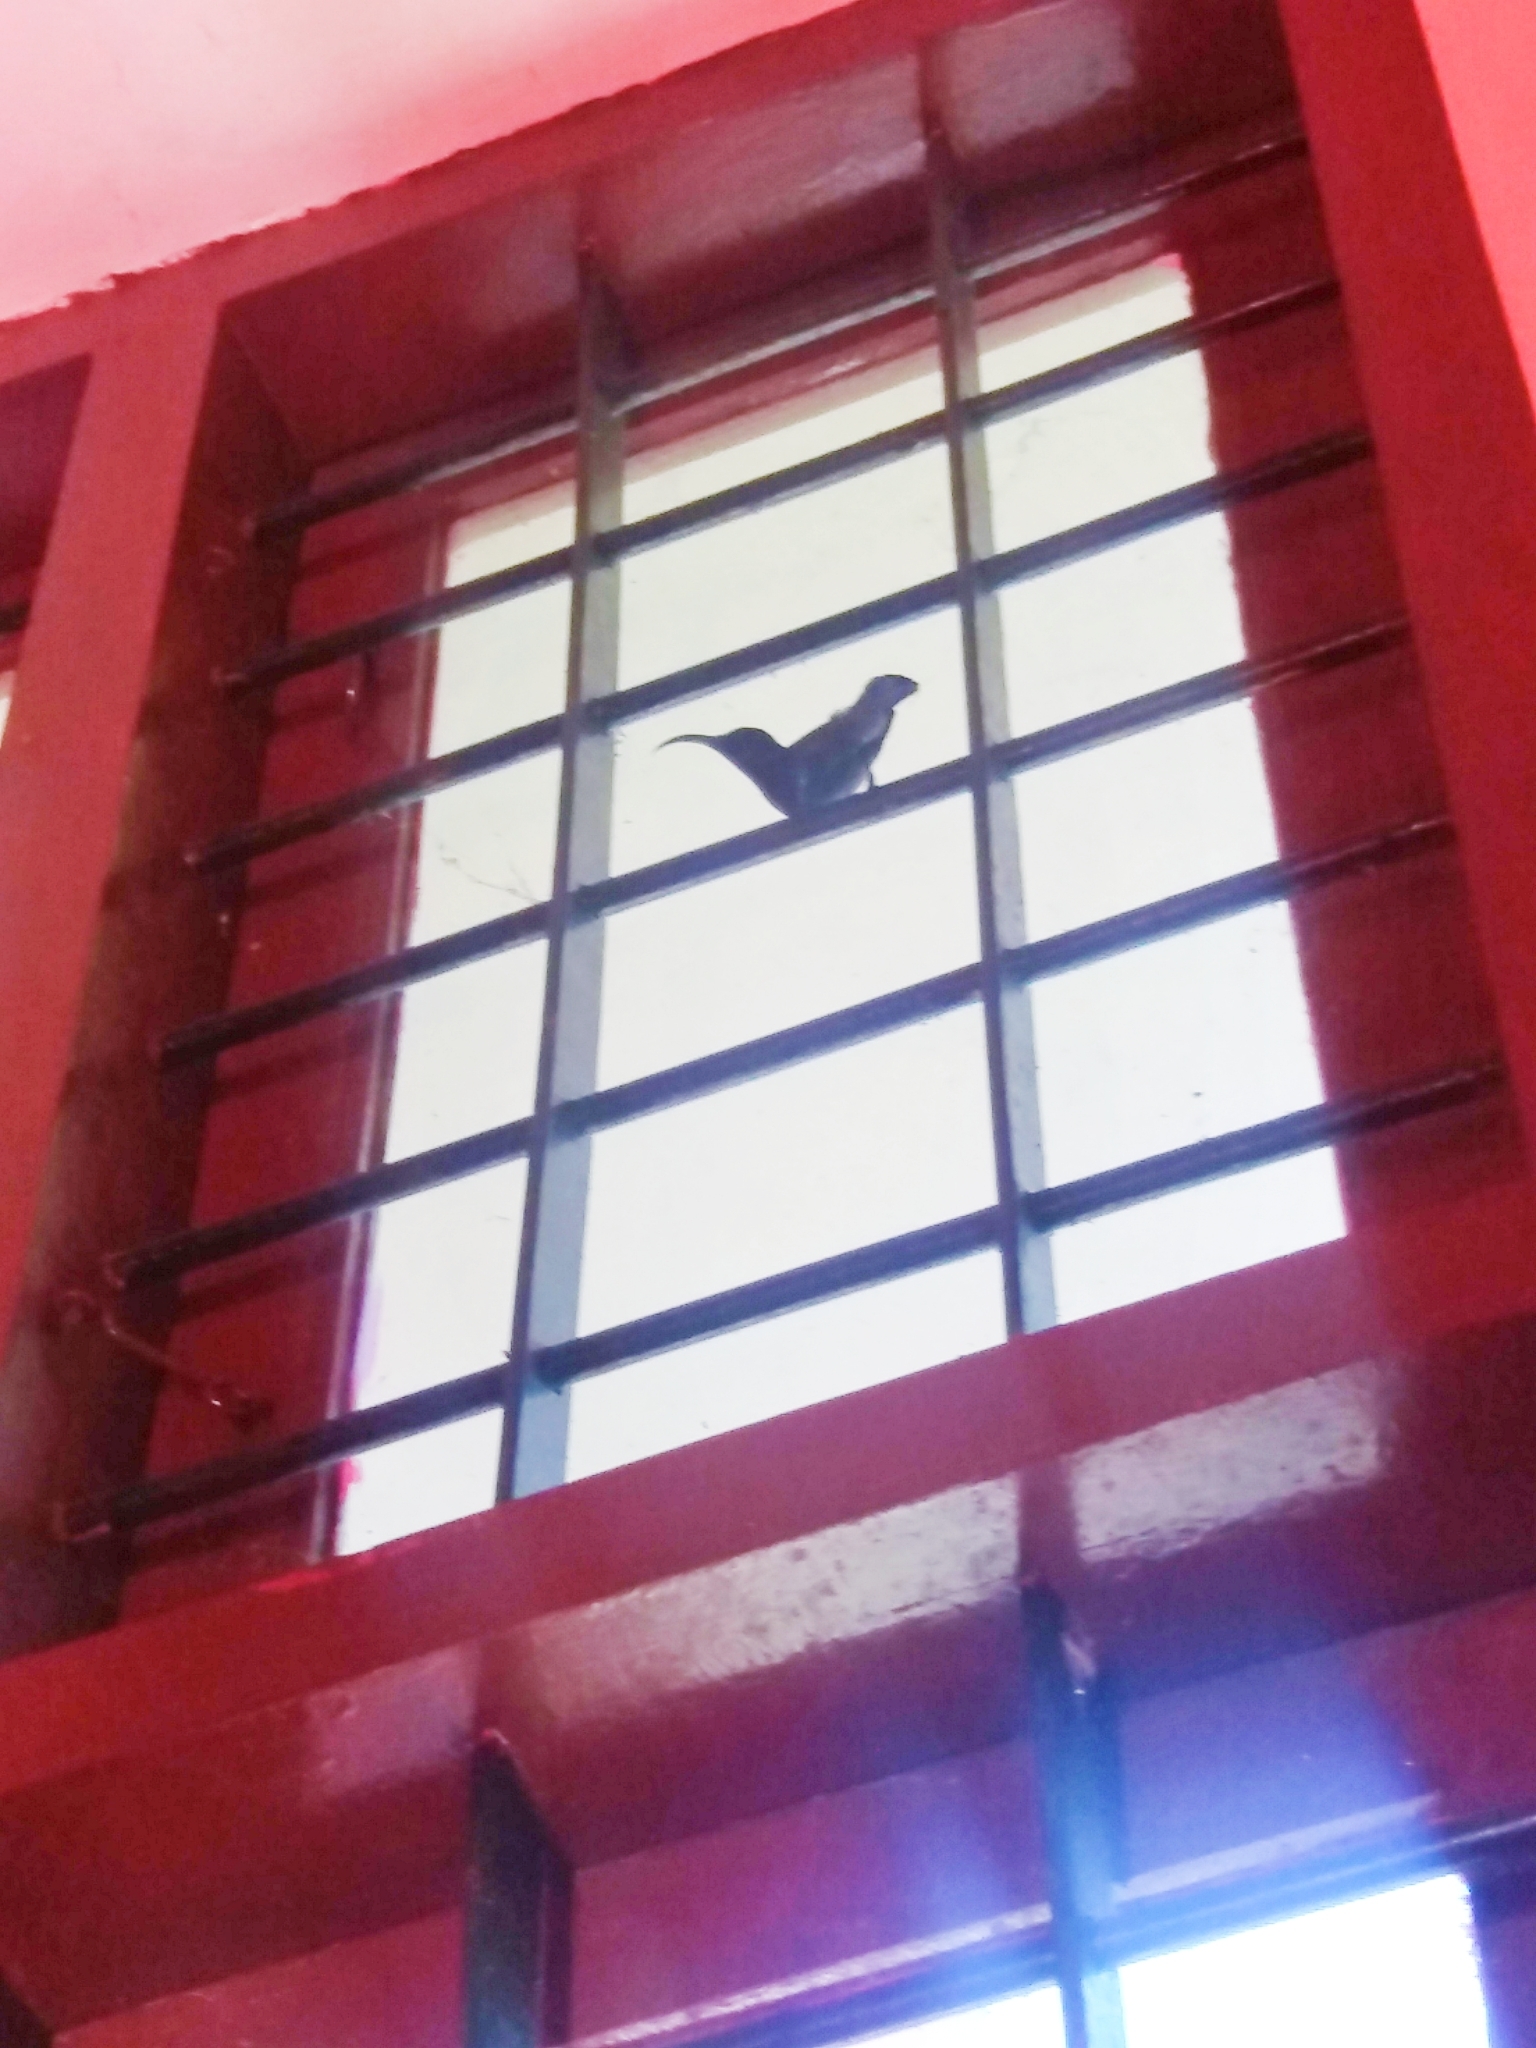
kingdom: Animalia
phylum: Chordata
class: Aves
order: Passeriformes
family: Nectariniidae
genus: Cinnyris
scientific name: Cinnyris lotenius
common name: Loten's sunbird
